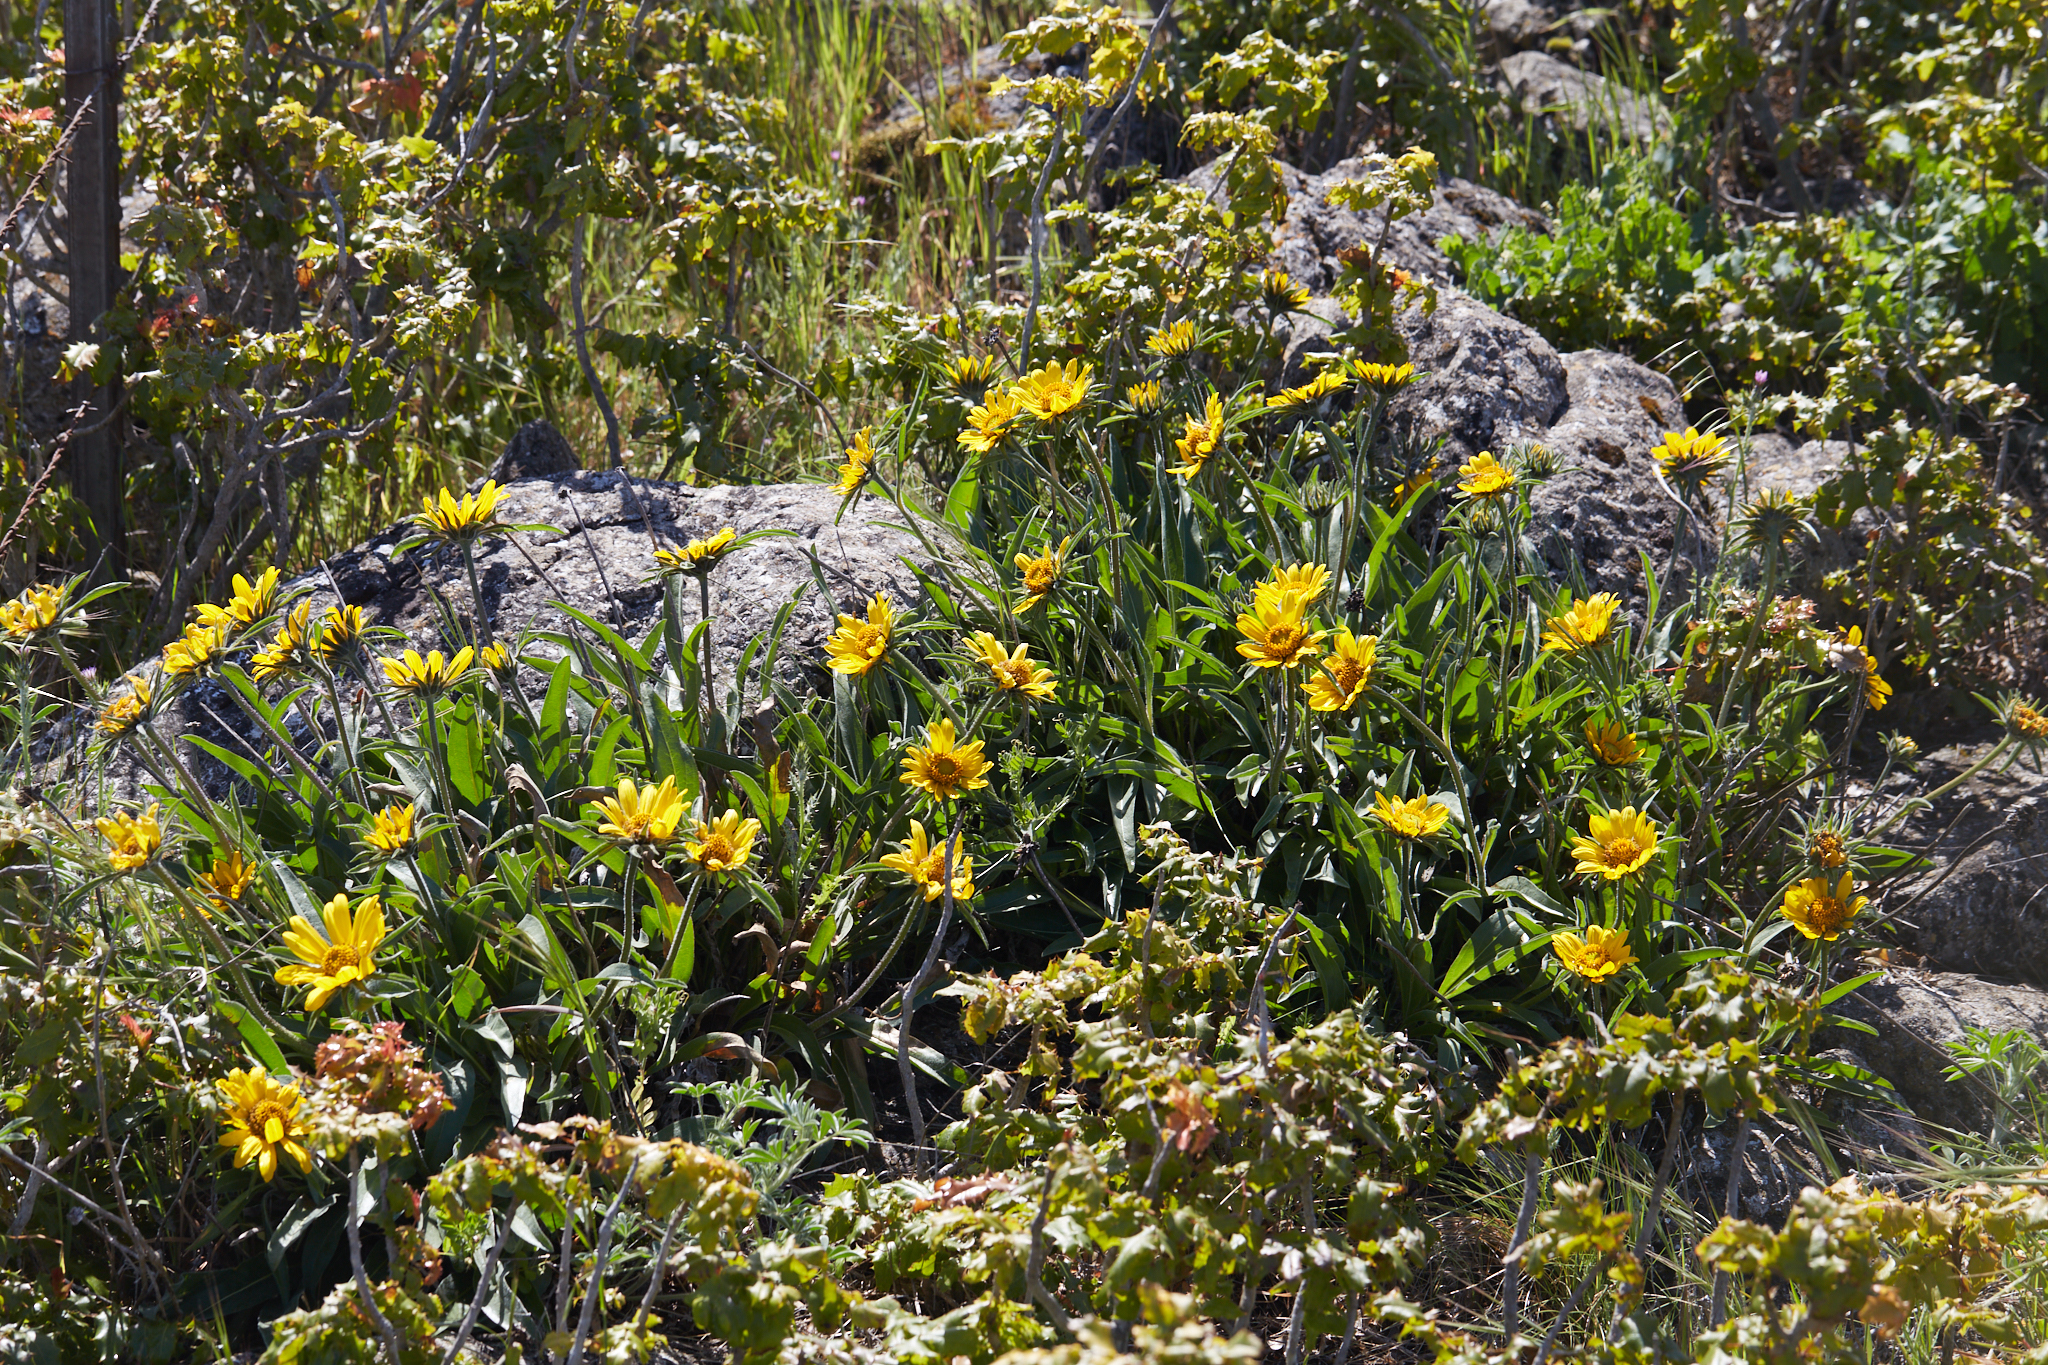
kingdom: Plantae
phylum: Tracheophyta
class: Magnoliopsida
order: Asterales
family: Asteraceae
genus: Helianthella
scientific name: Helianthella castanea
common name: Diablo helianthella
